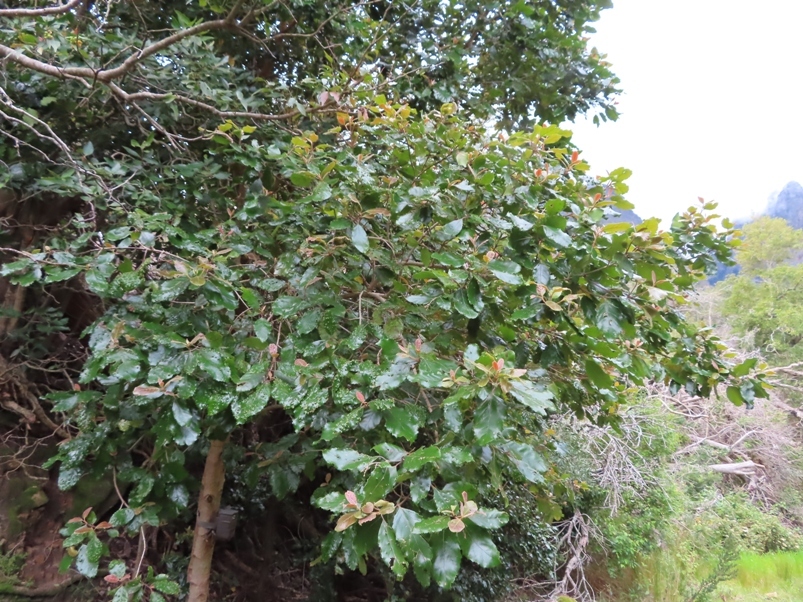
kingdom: Plantae
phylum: Tracheophyta
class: Magnoliopsida
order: Cornales
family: Curtisiaceae
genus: Curtisia
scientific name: Curtisia dentata
